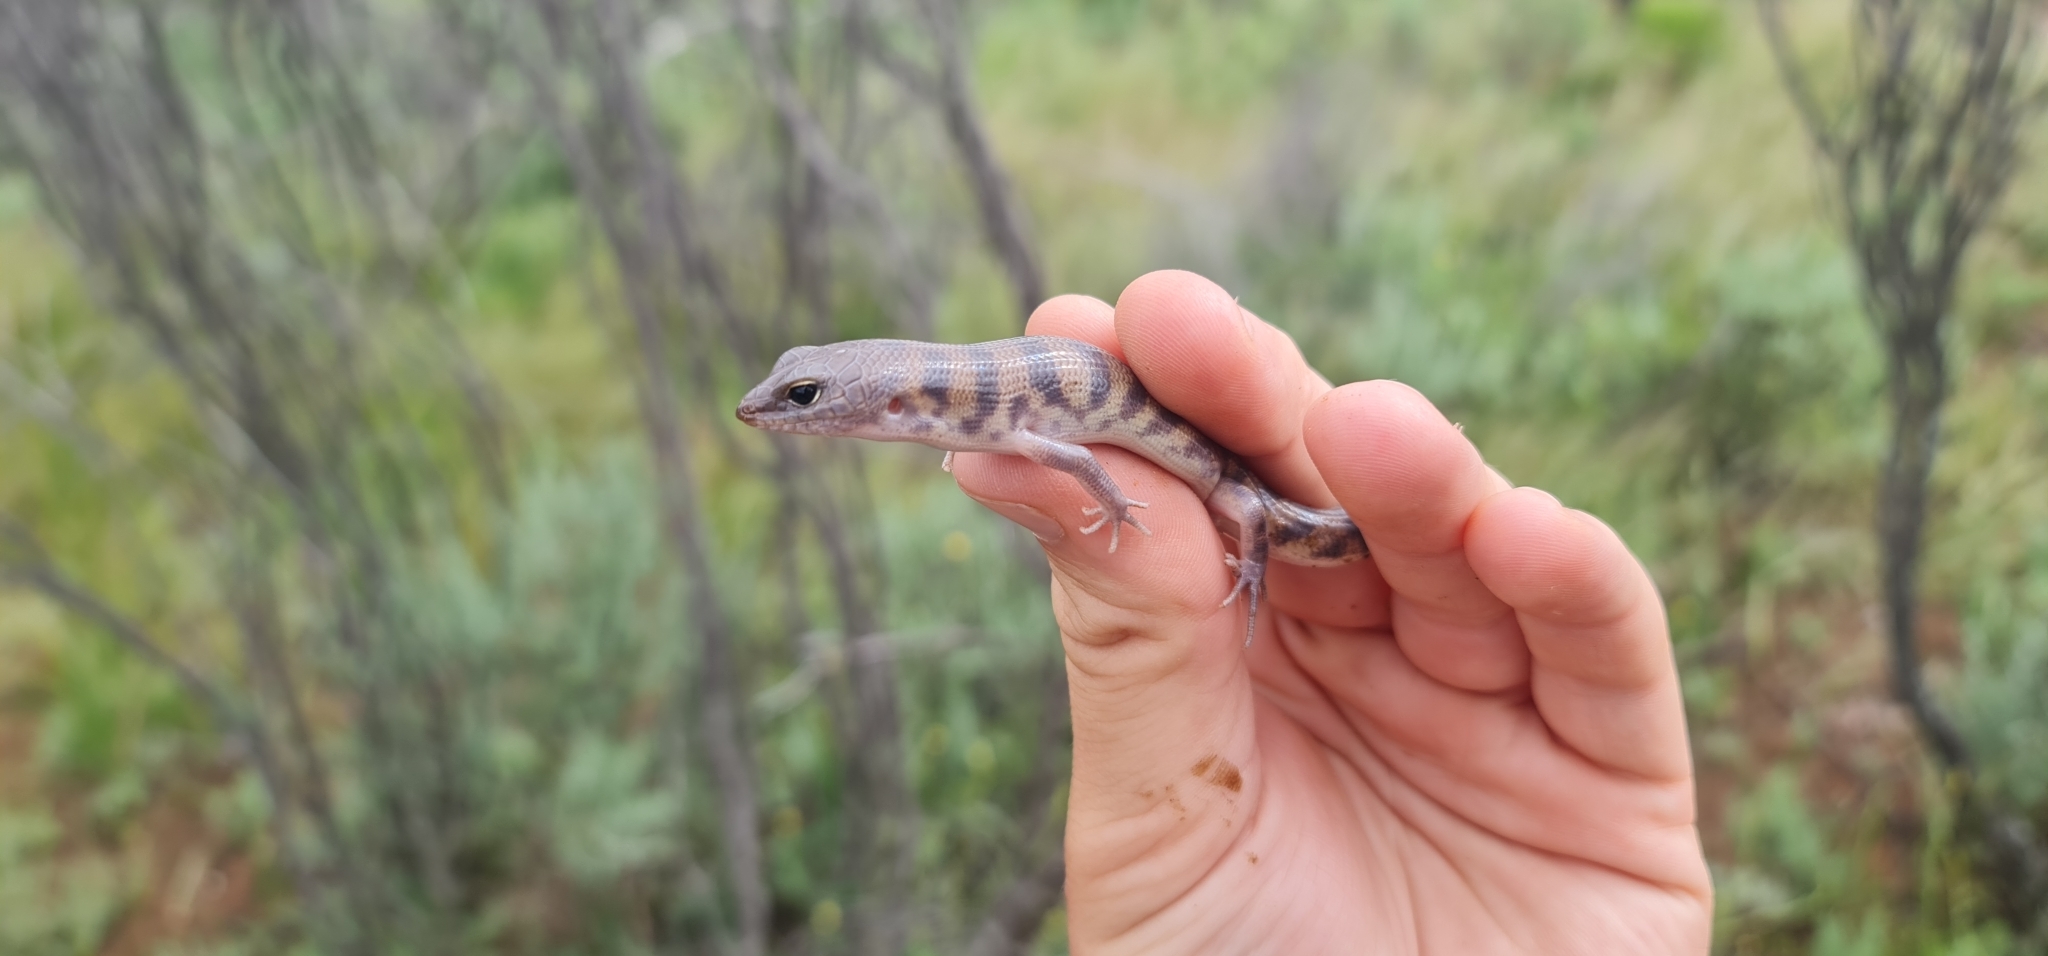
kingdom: Animalia
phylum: Chordata
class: Squamata
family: Scincidae
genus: Eremiascincus
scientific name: Eremiascincus richardsonii
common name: Broad banded sand swimmer
